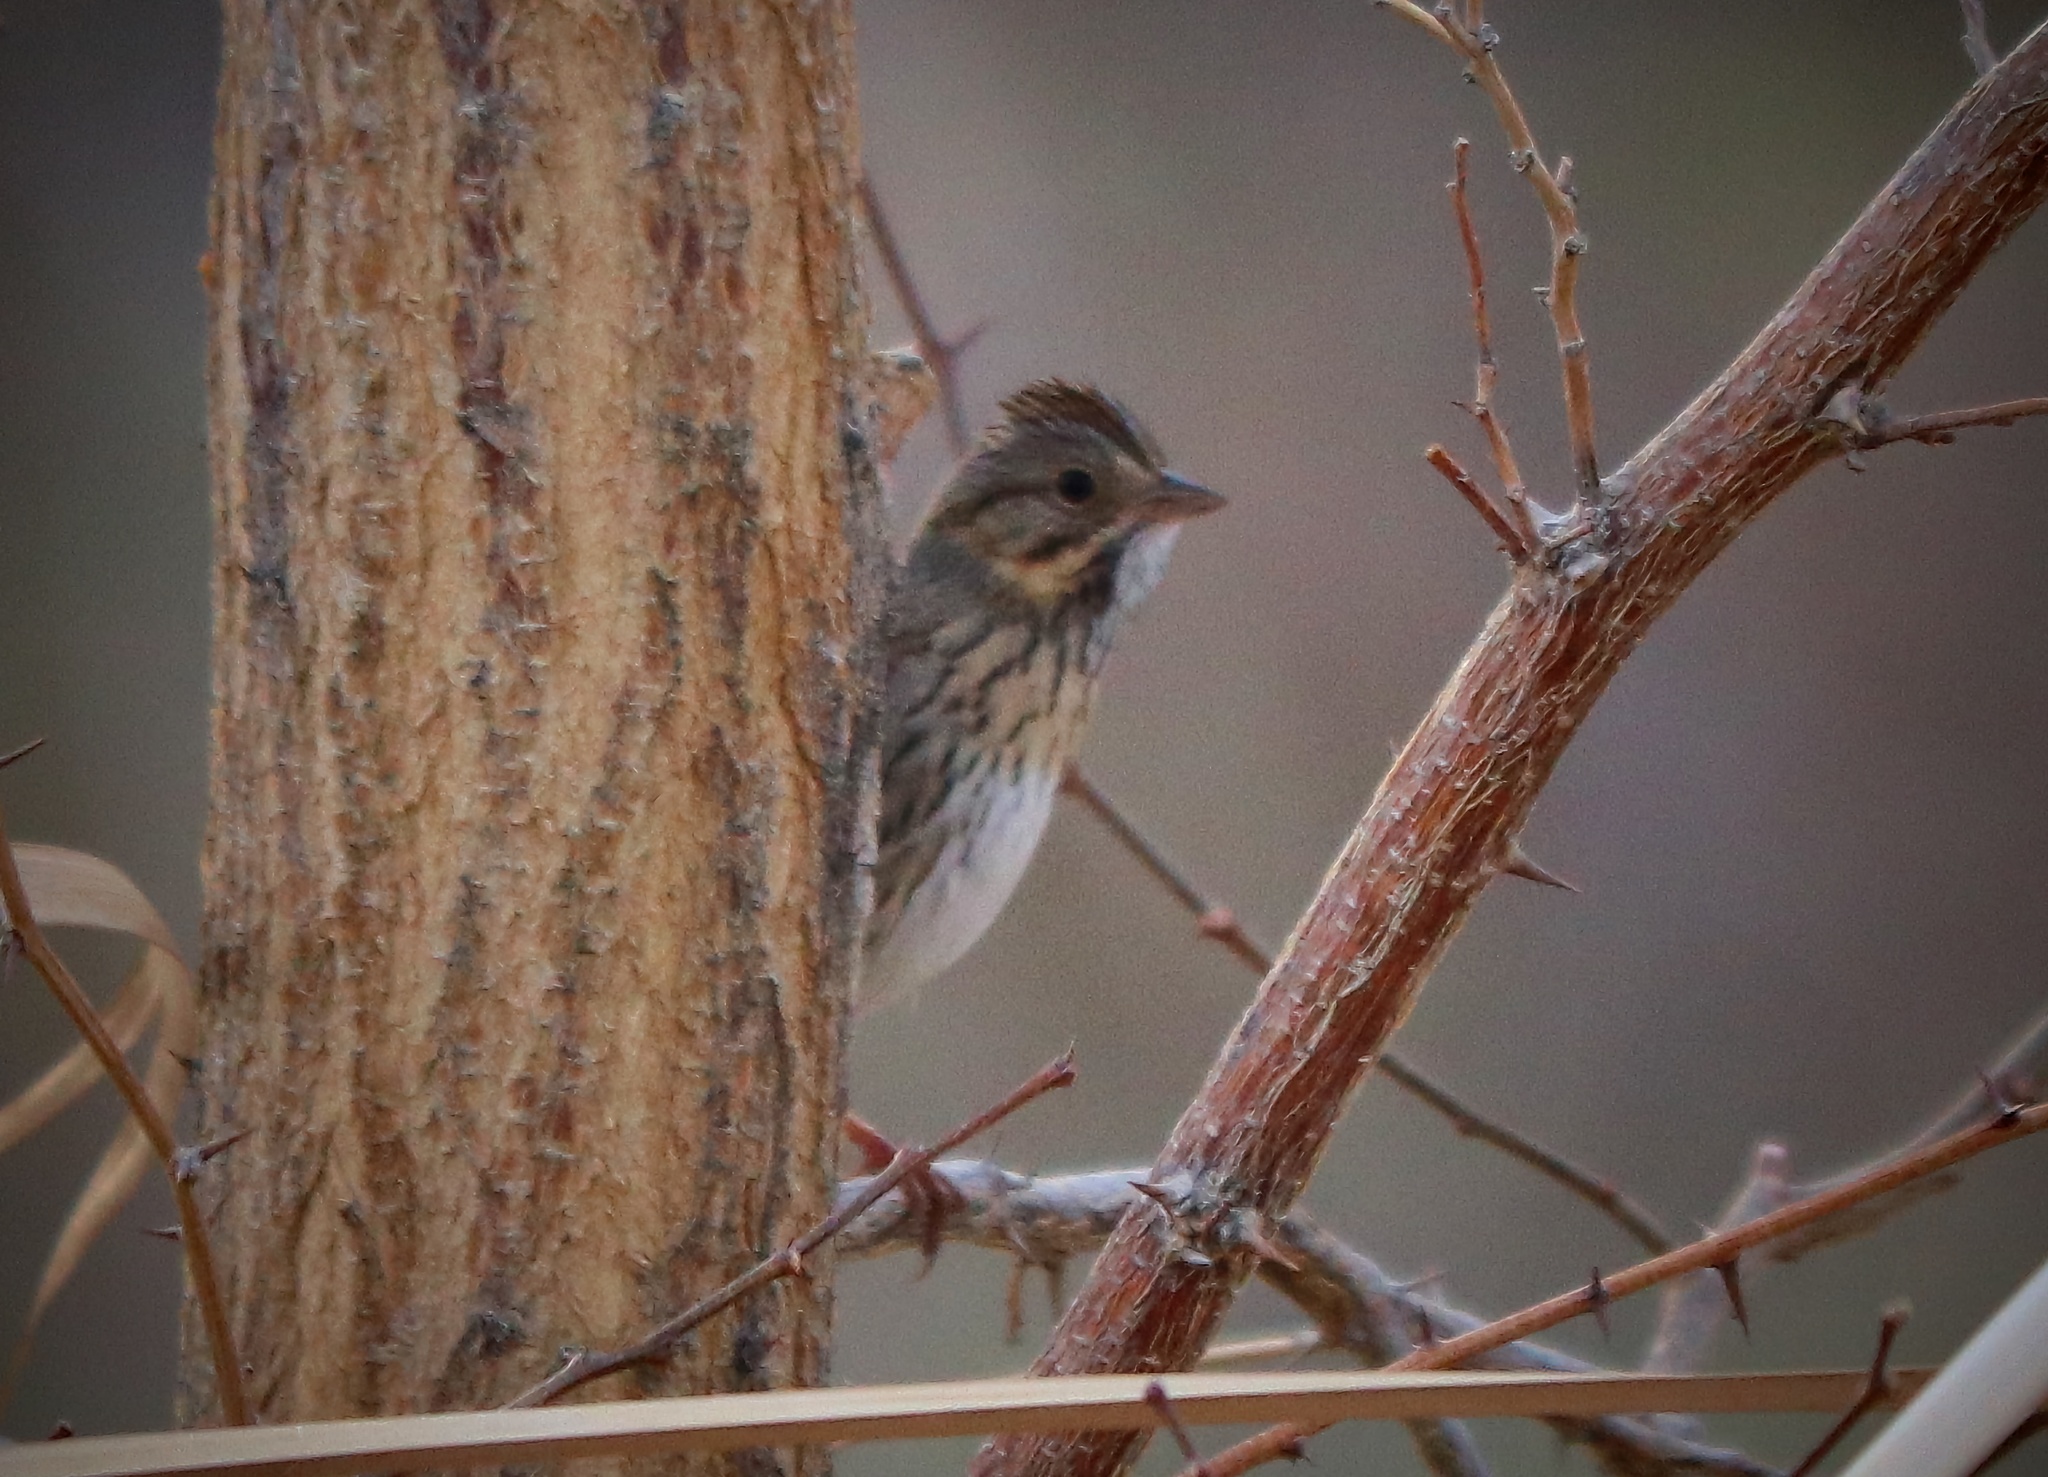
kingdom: Animalia
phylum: Chordata
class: Aves
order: Passeriformes
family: Passerellidae
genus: Melospiza
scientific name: Melospiza lincolnii
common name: Lincoln's sparrow
